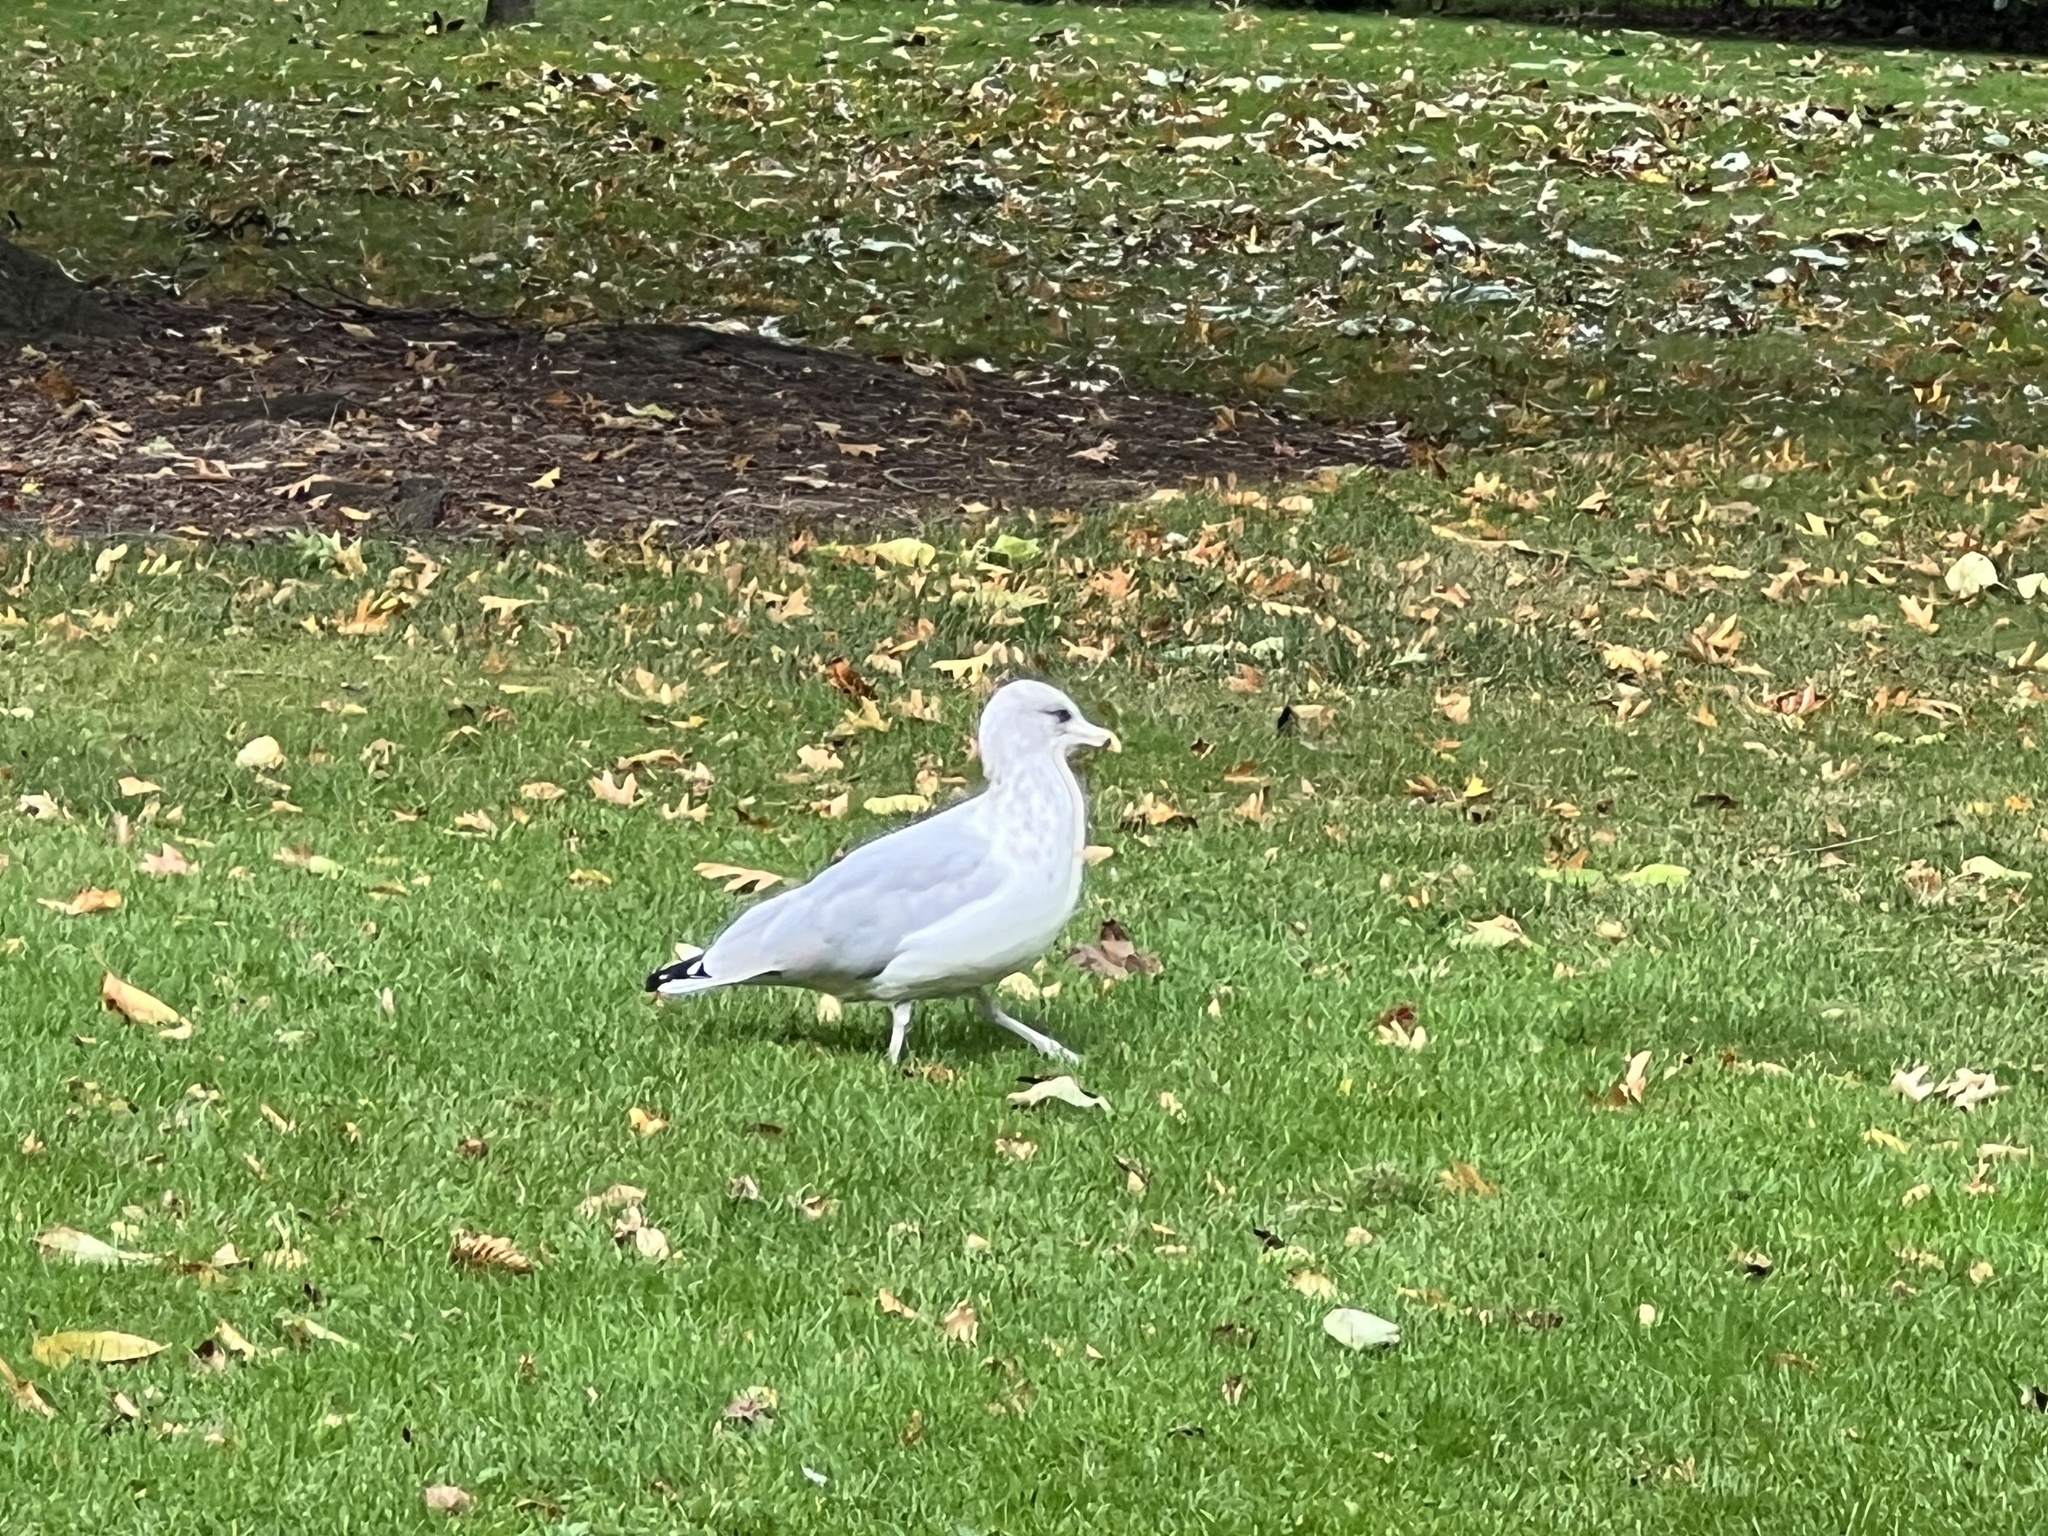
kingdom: Animalia
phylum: Chordata
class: Aves
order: Charadriiformes
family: Laridae
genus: Larus
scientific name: Larus argentatus
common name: Herring gull
